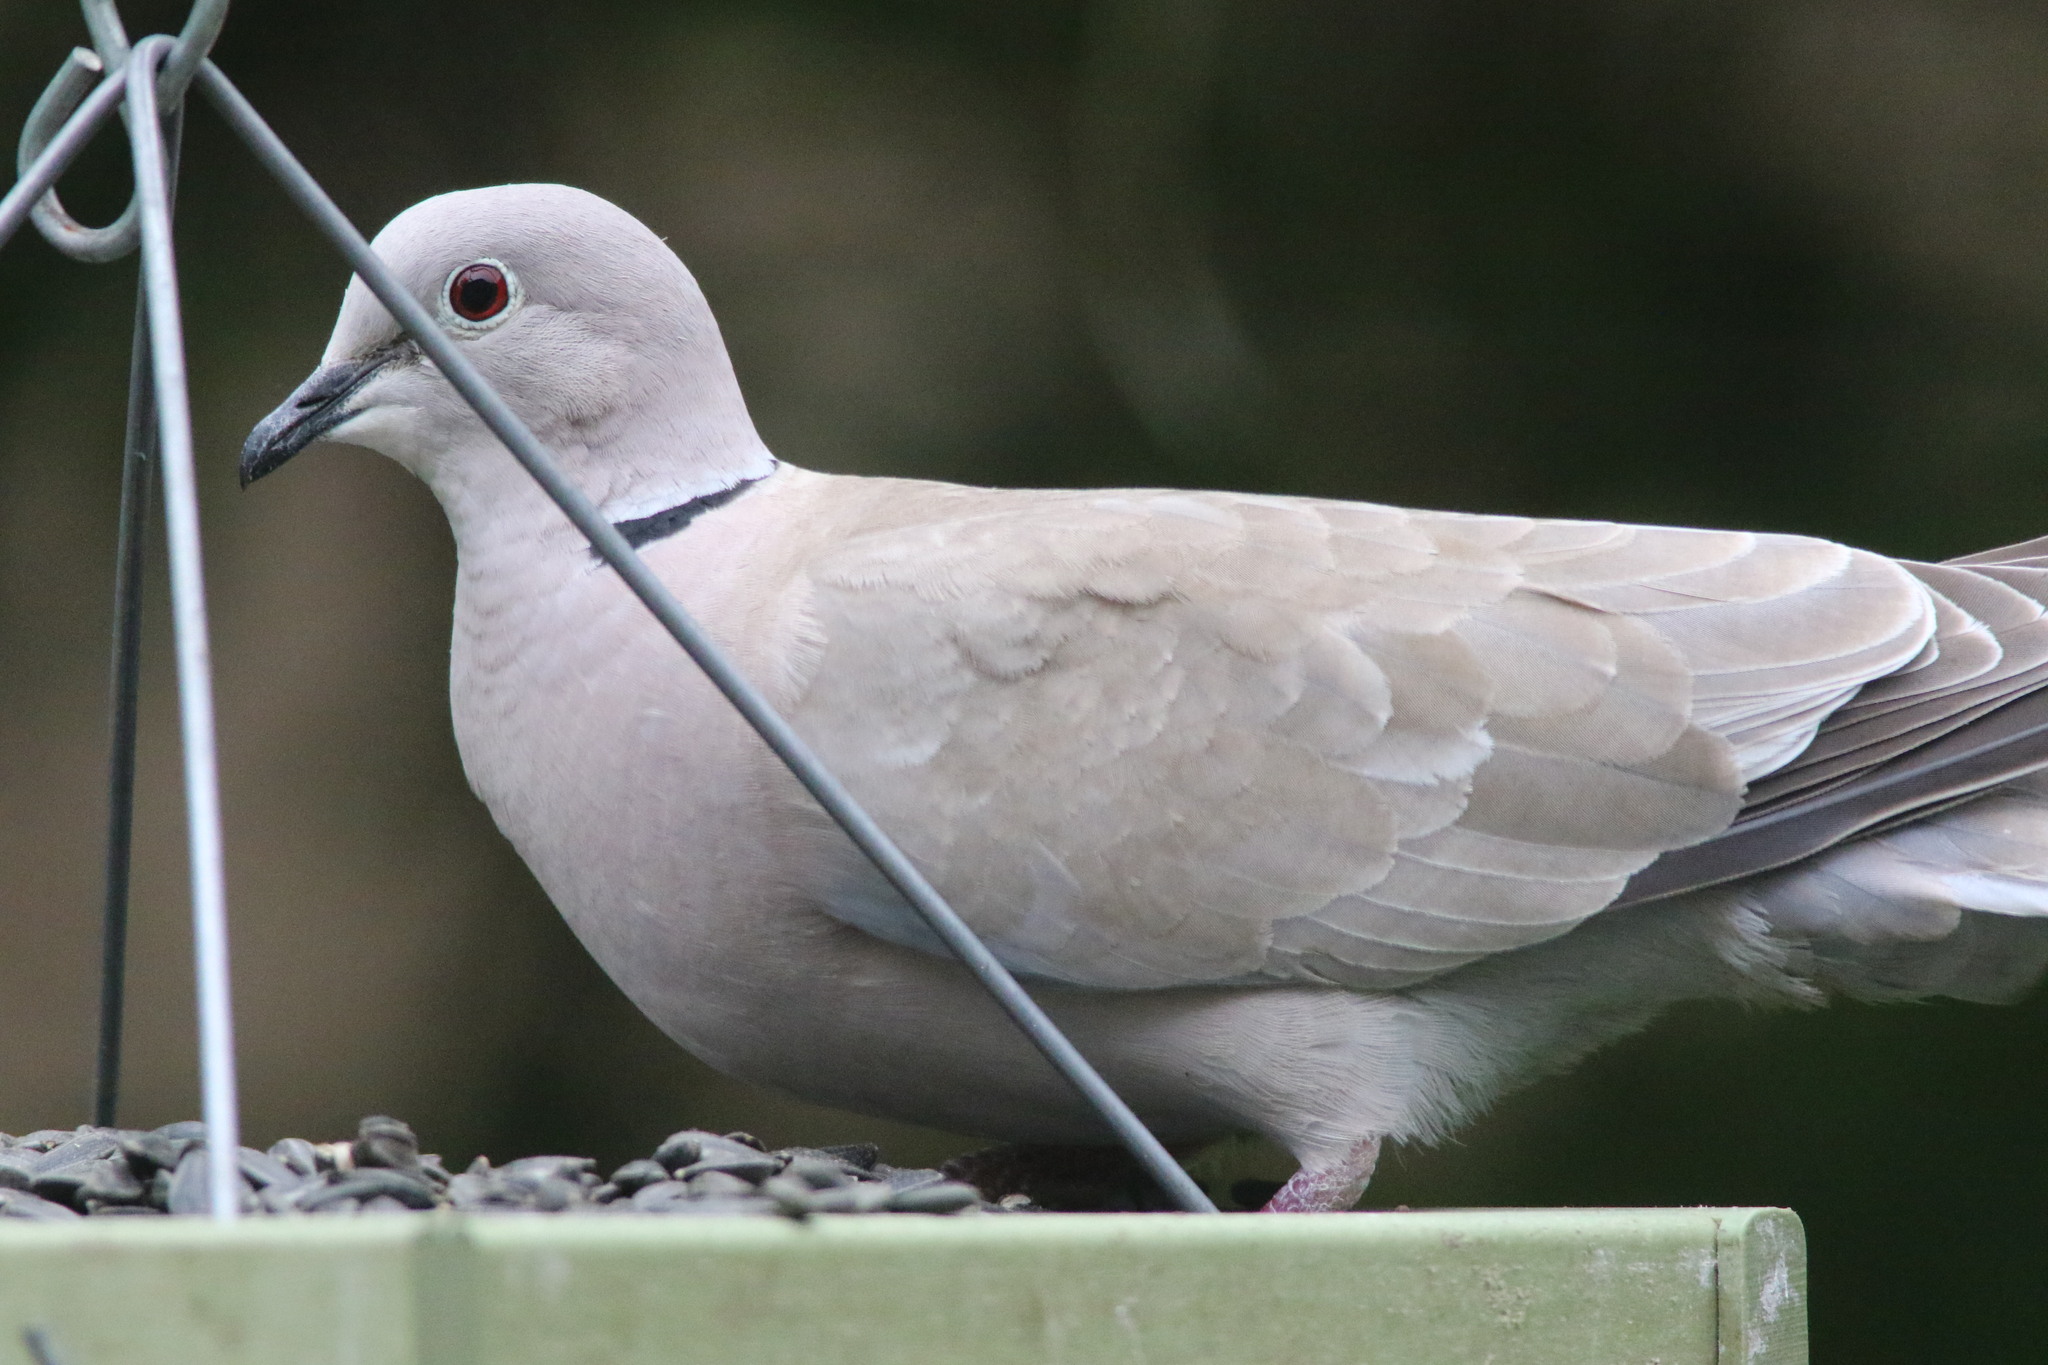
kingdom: Animalia
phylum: Chordata
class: Aves
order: Columbiformes
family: Columbidae
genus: Streptopelia
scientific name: Streptopelia decaocto
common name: Eurasian collared dove
